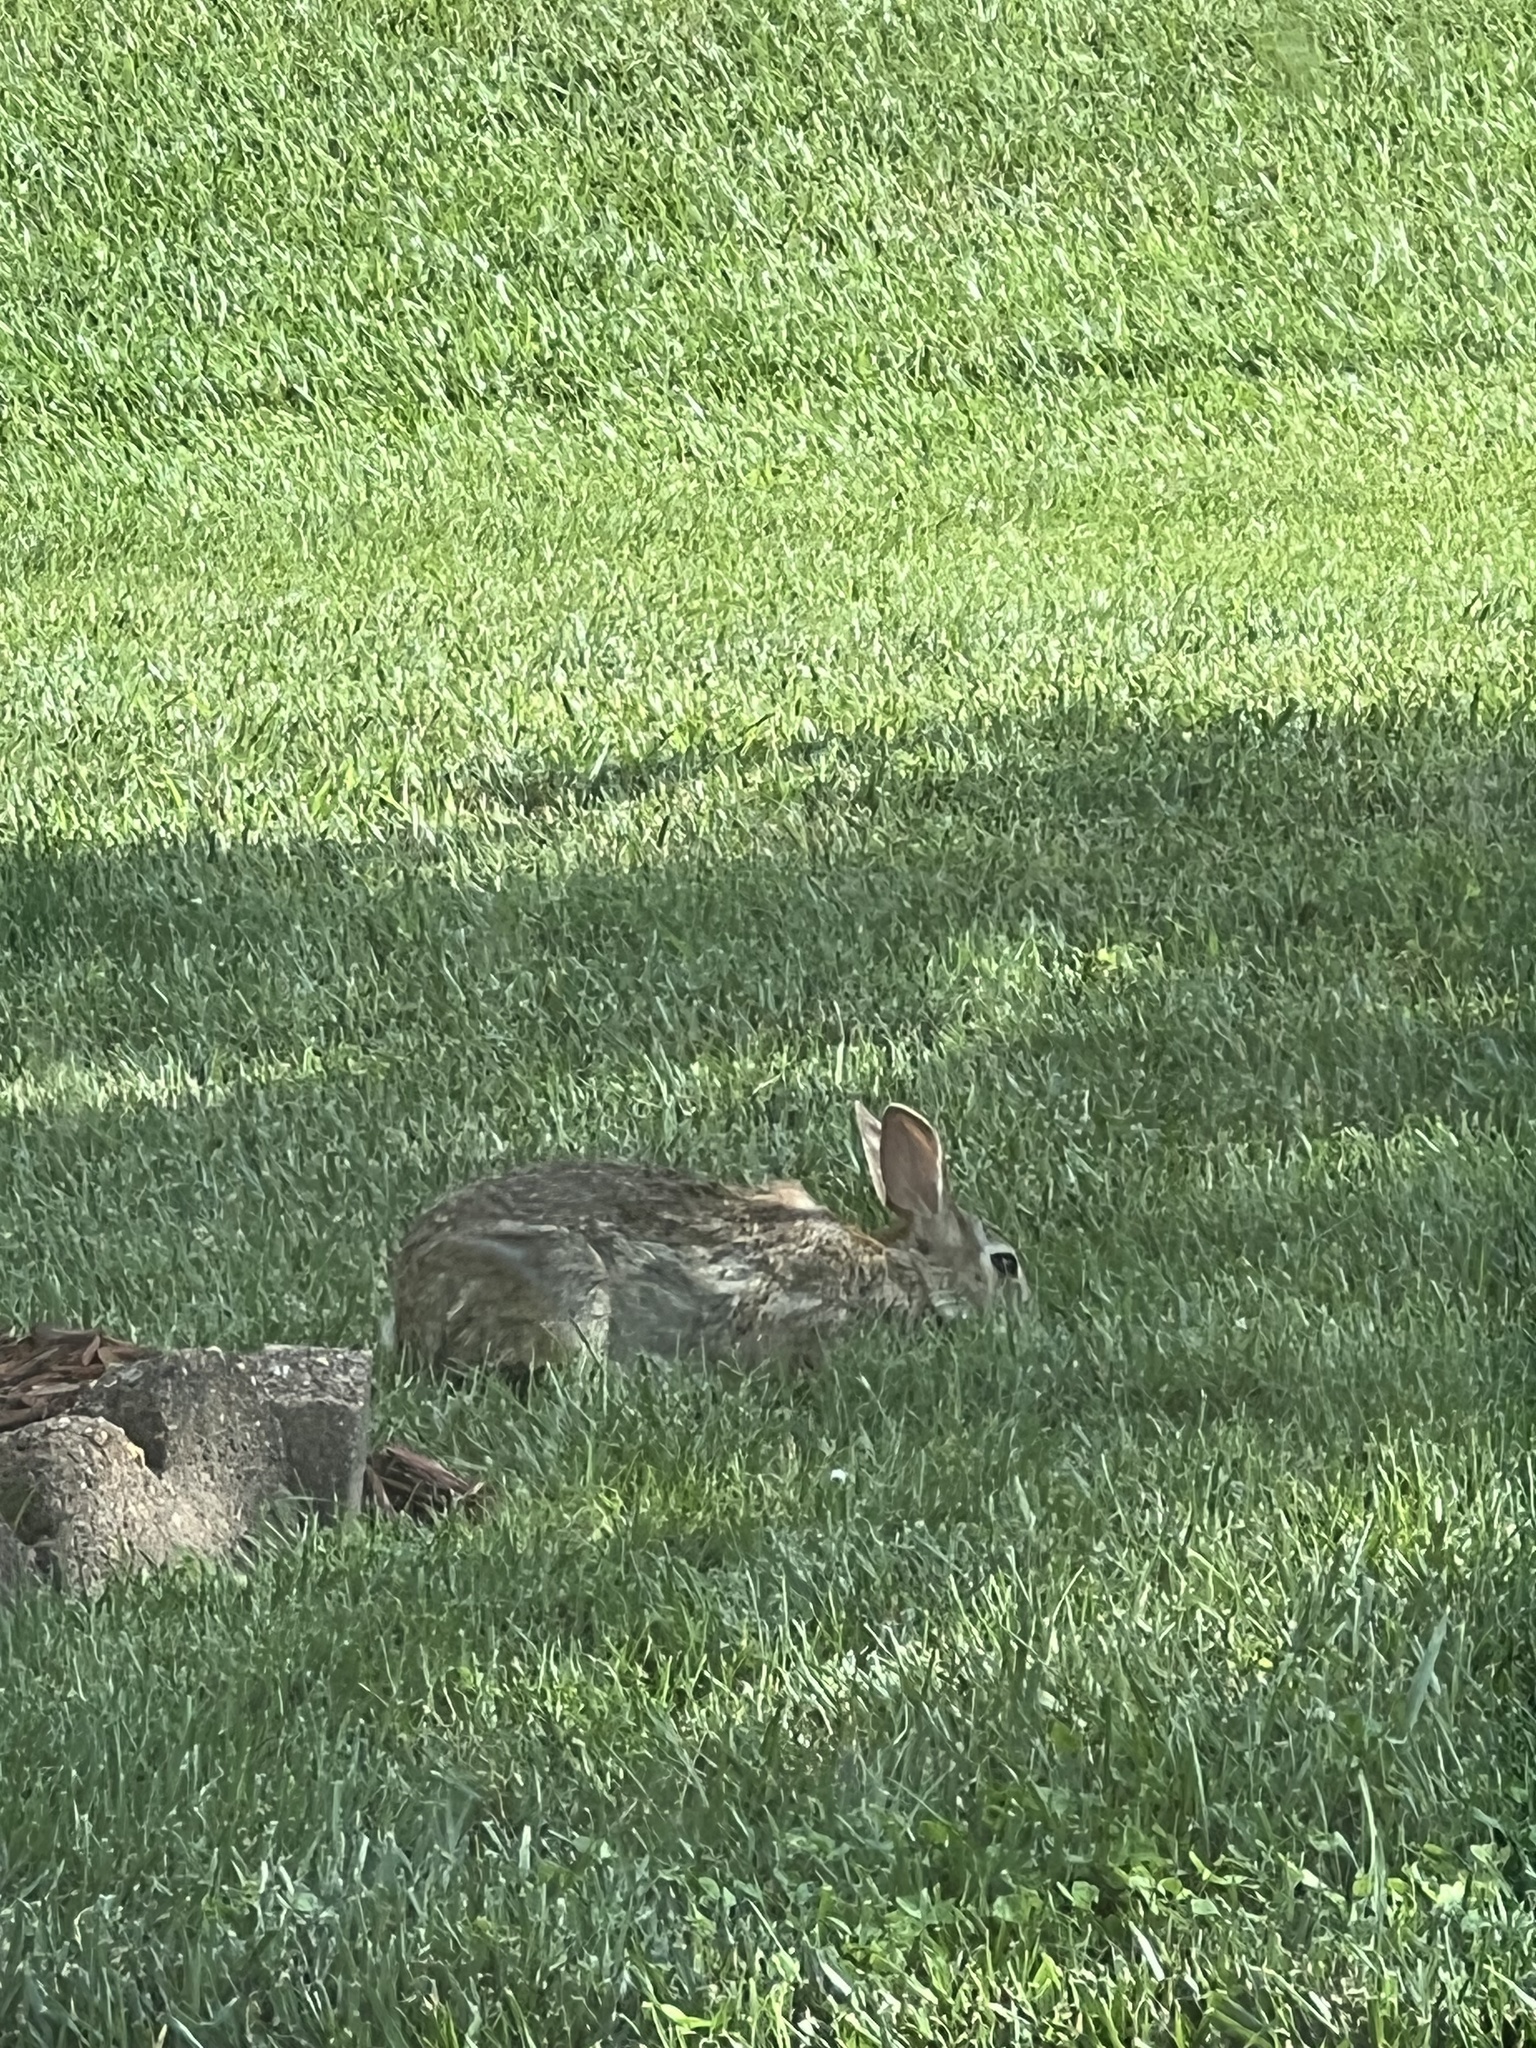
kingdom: Animalia
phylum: Chordata
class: Mammalia
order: Lagomorpha
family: Leporidae
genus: Sylvilagus
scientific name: Sylvilagus floridanus
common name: Eastern cottontail
